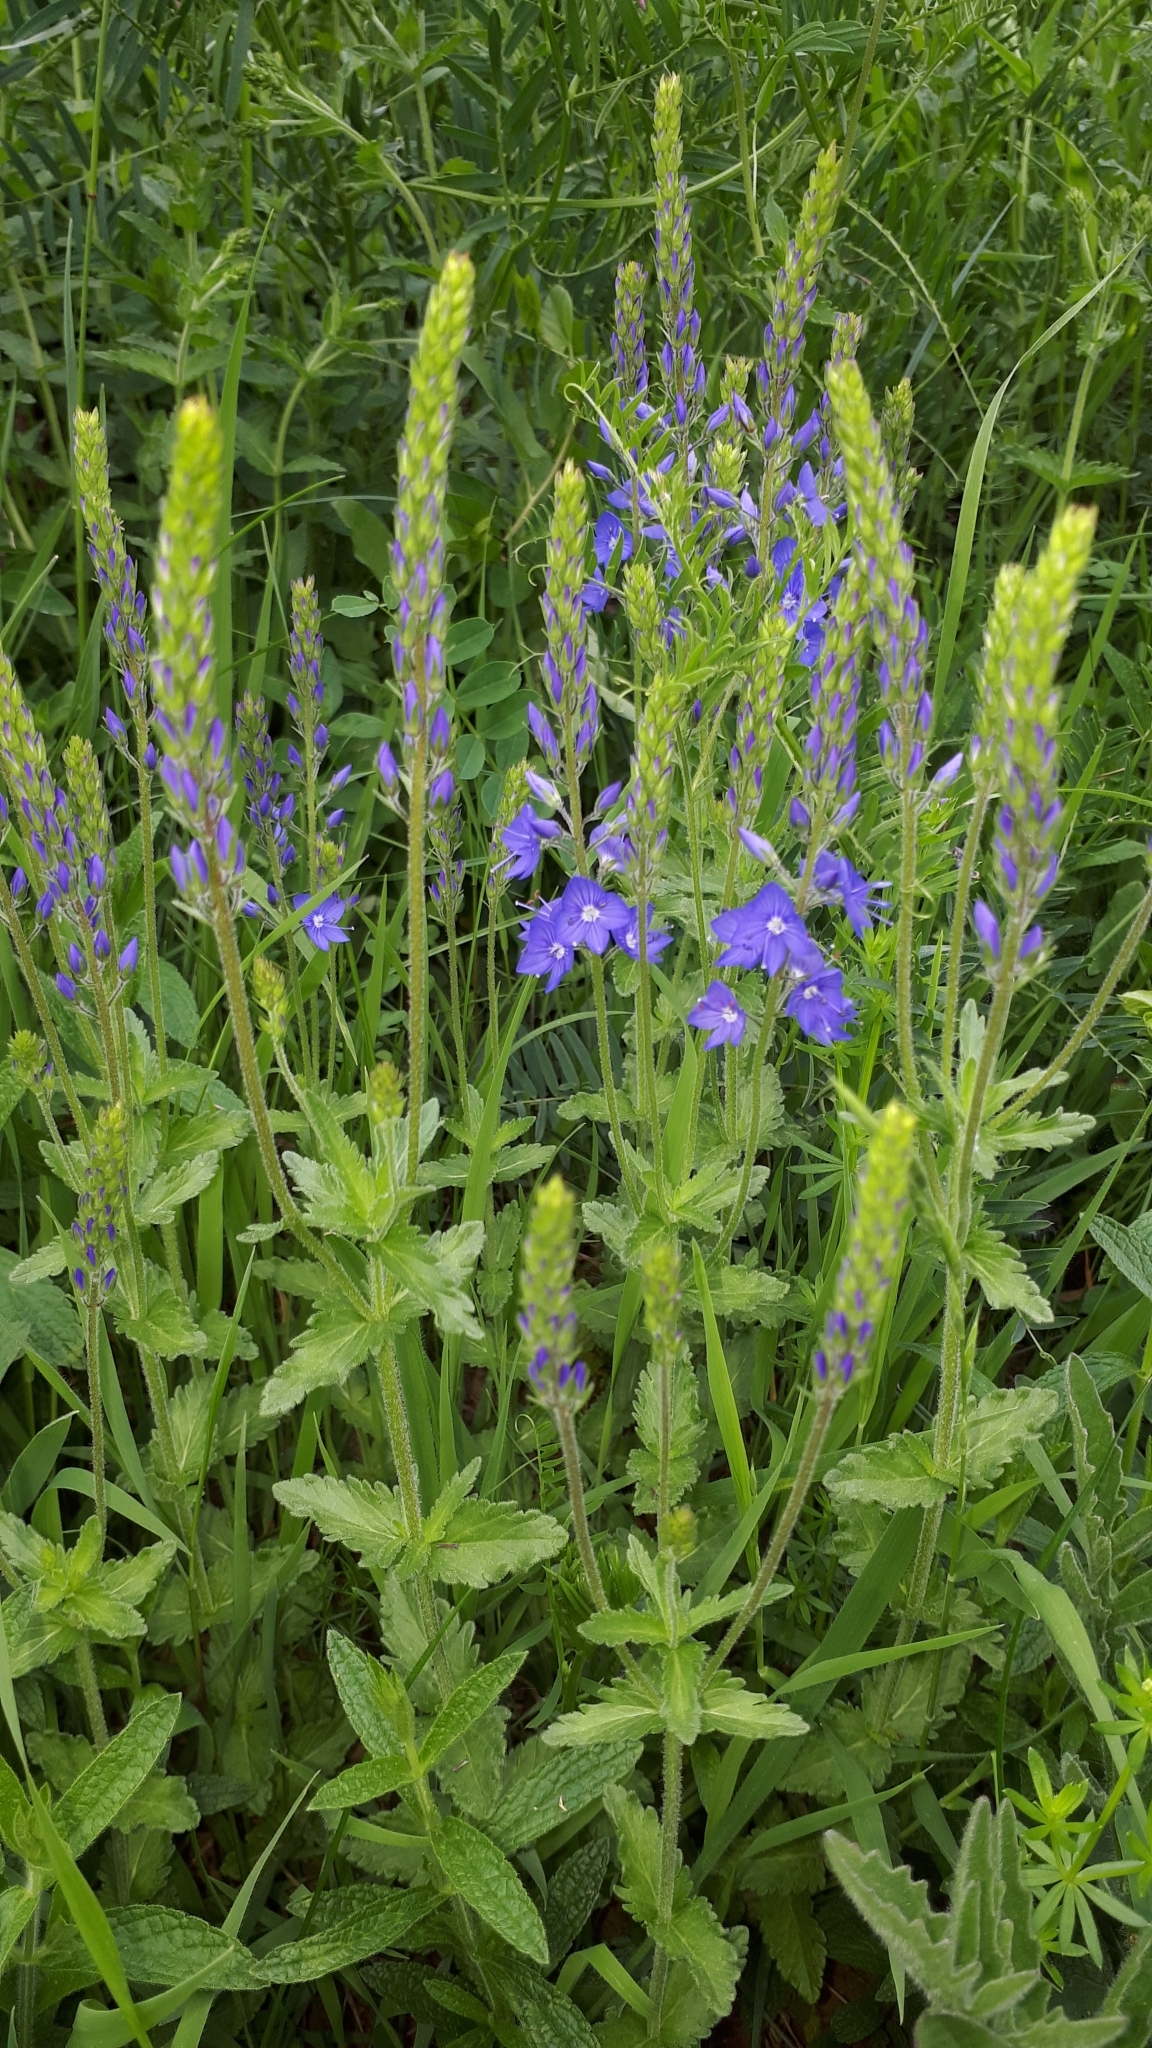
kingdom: Plantae
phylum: Tracheophyta
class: Magnoliopsida
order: Lamiales
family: Plantaginaceae
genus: Veronica
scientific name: Veronica teucrium
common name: Large speedwell
